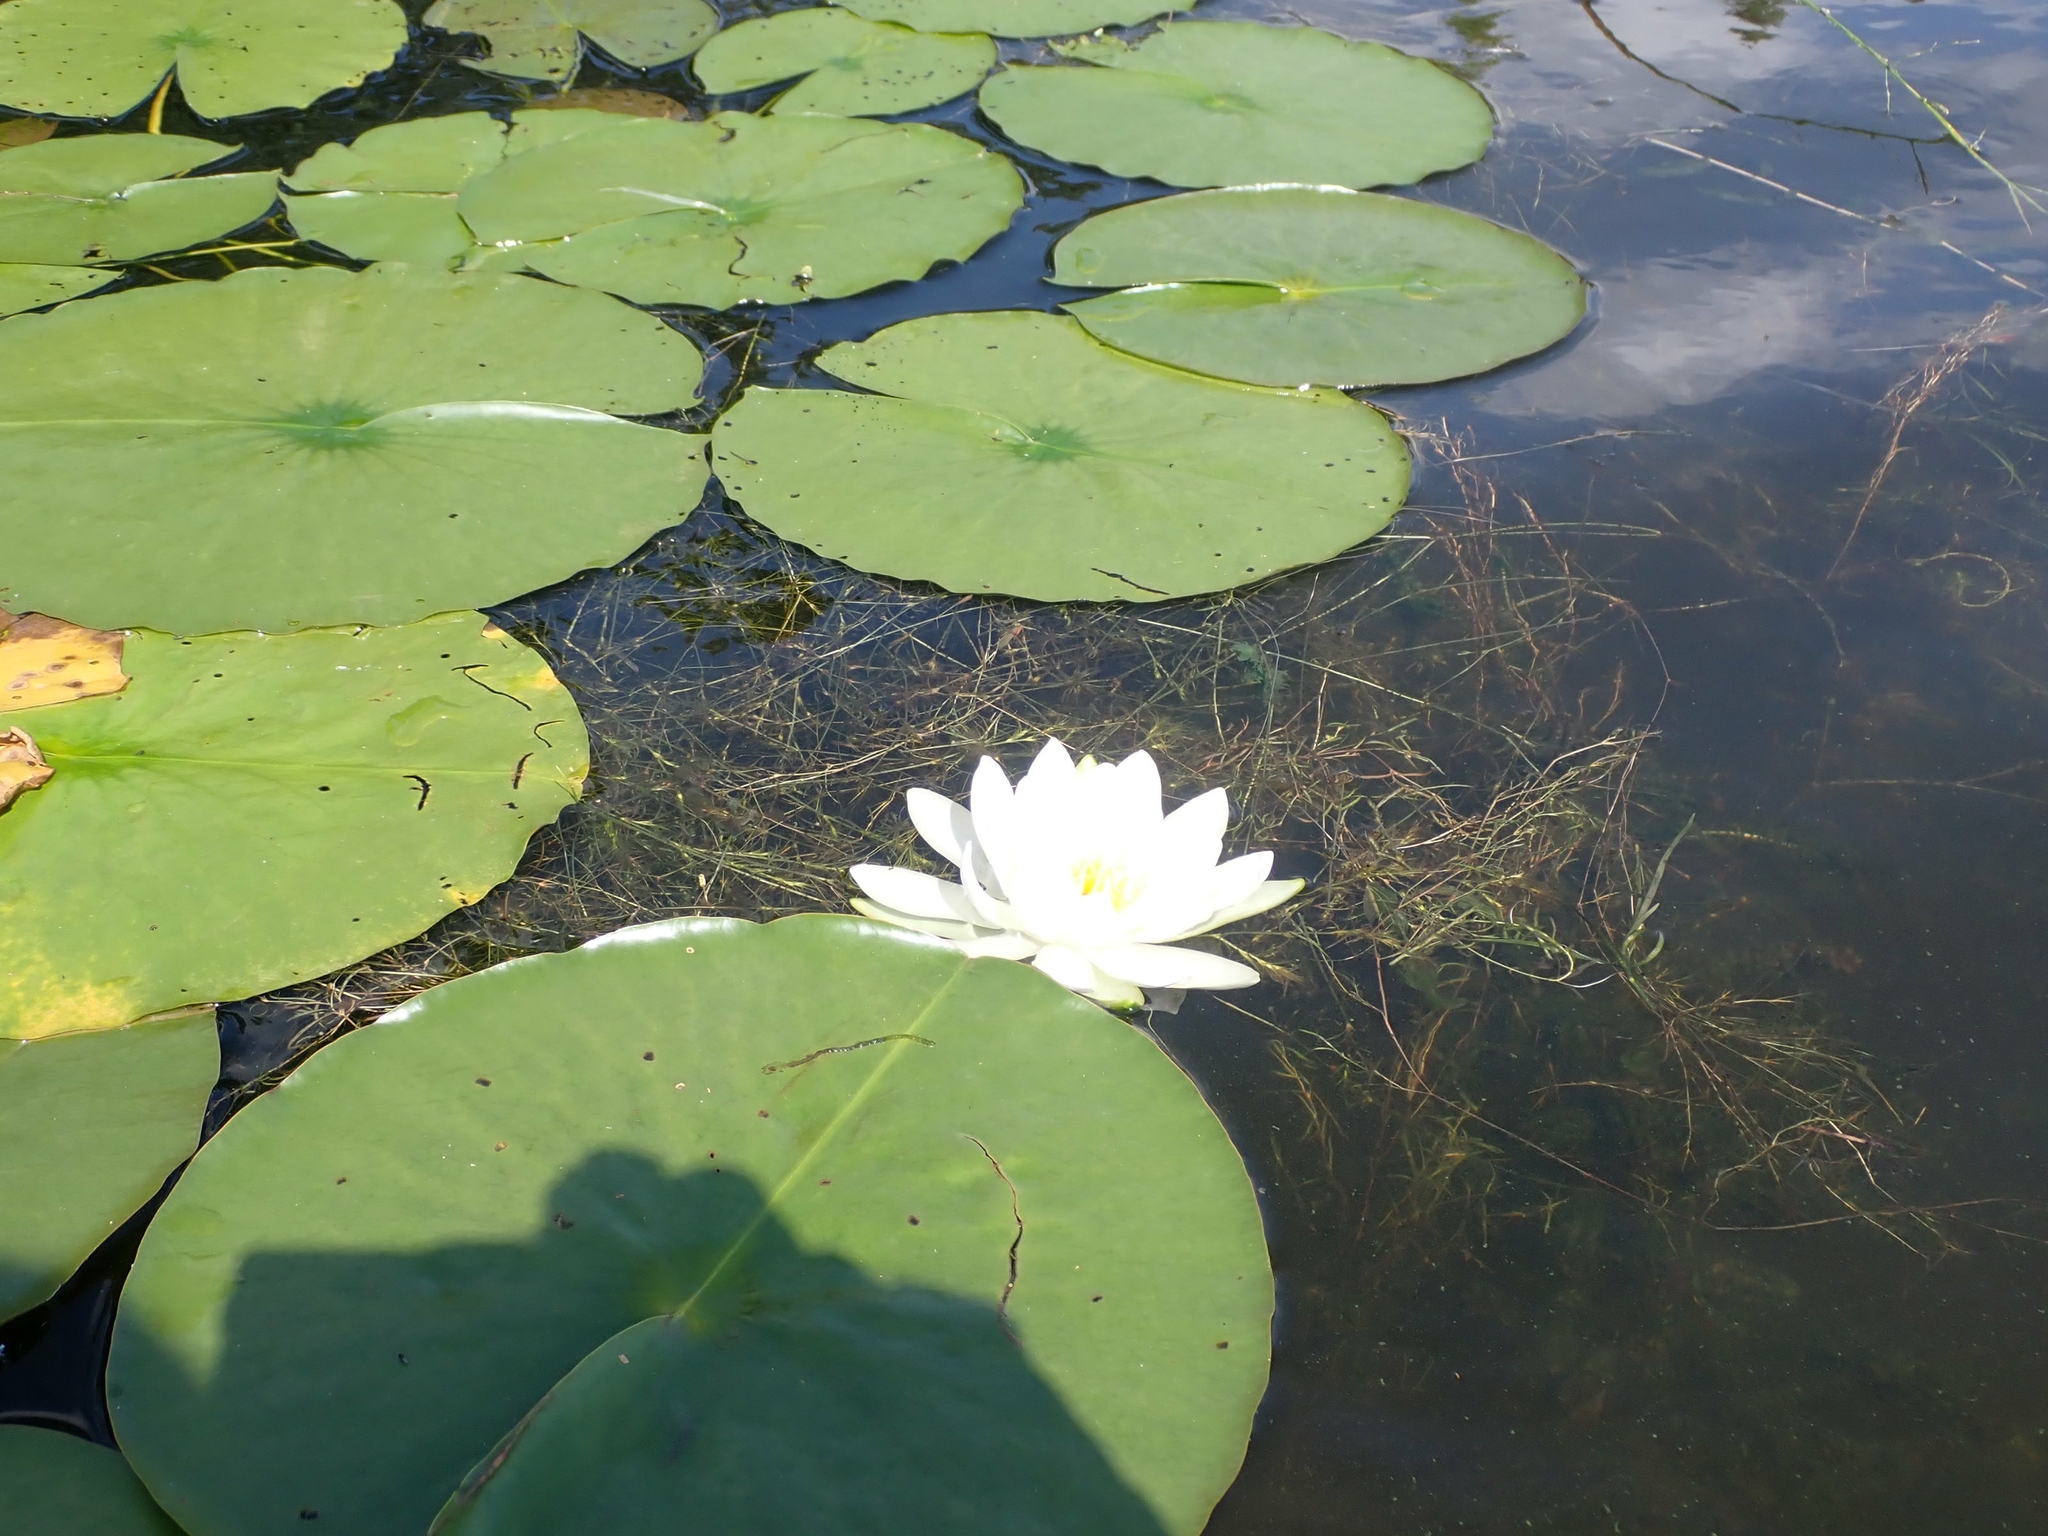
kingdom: Plantae
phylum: Tracheophyta
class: Magnoliopsida
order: Nymphaeales
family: Nymphaeaceae
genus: Nymphaea
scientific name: Nymphaea odorata
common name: Fragrant water-lily
